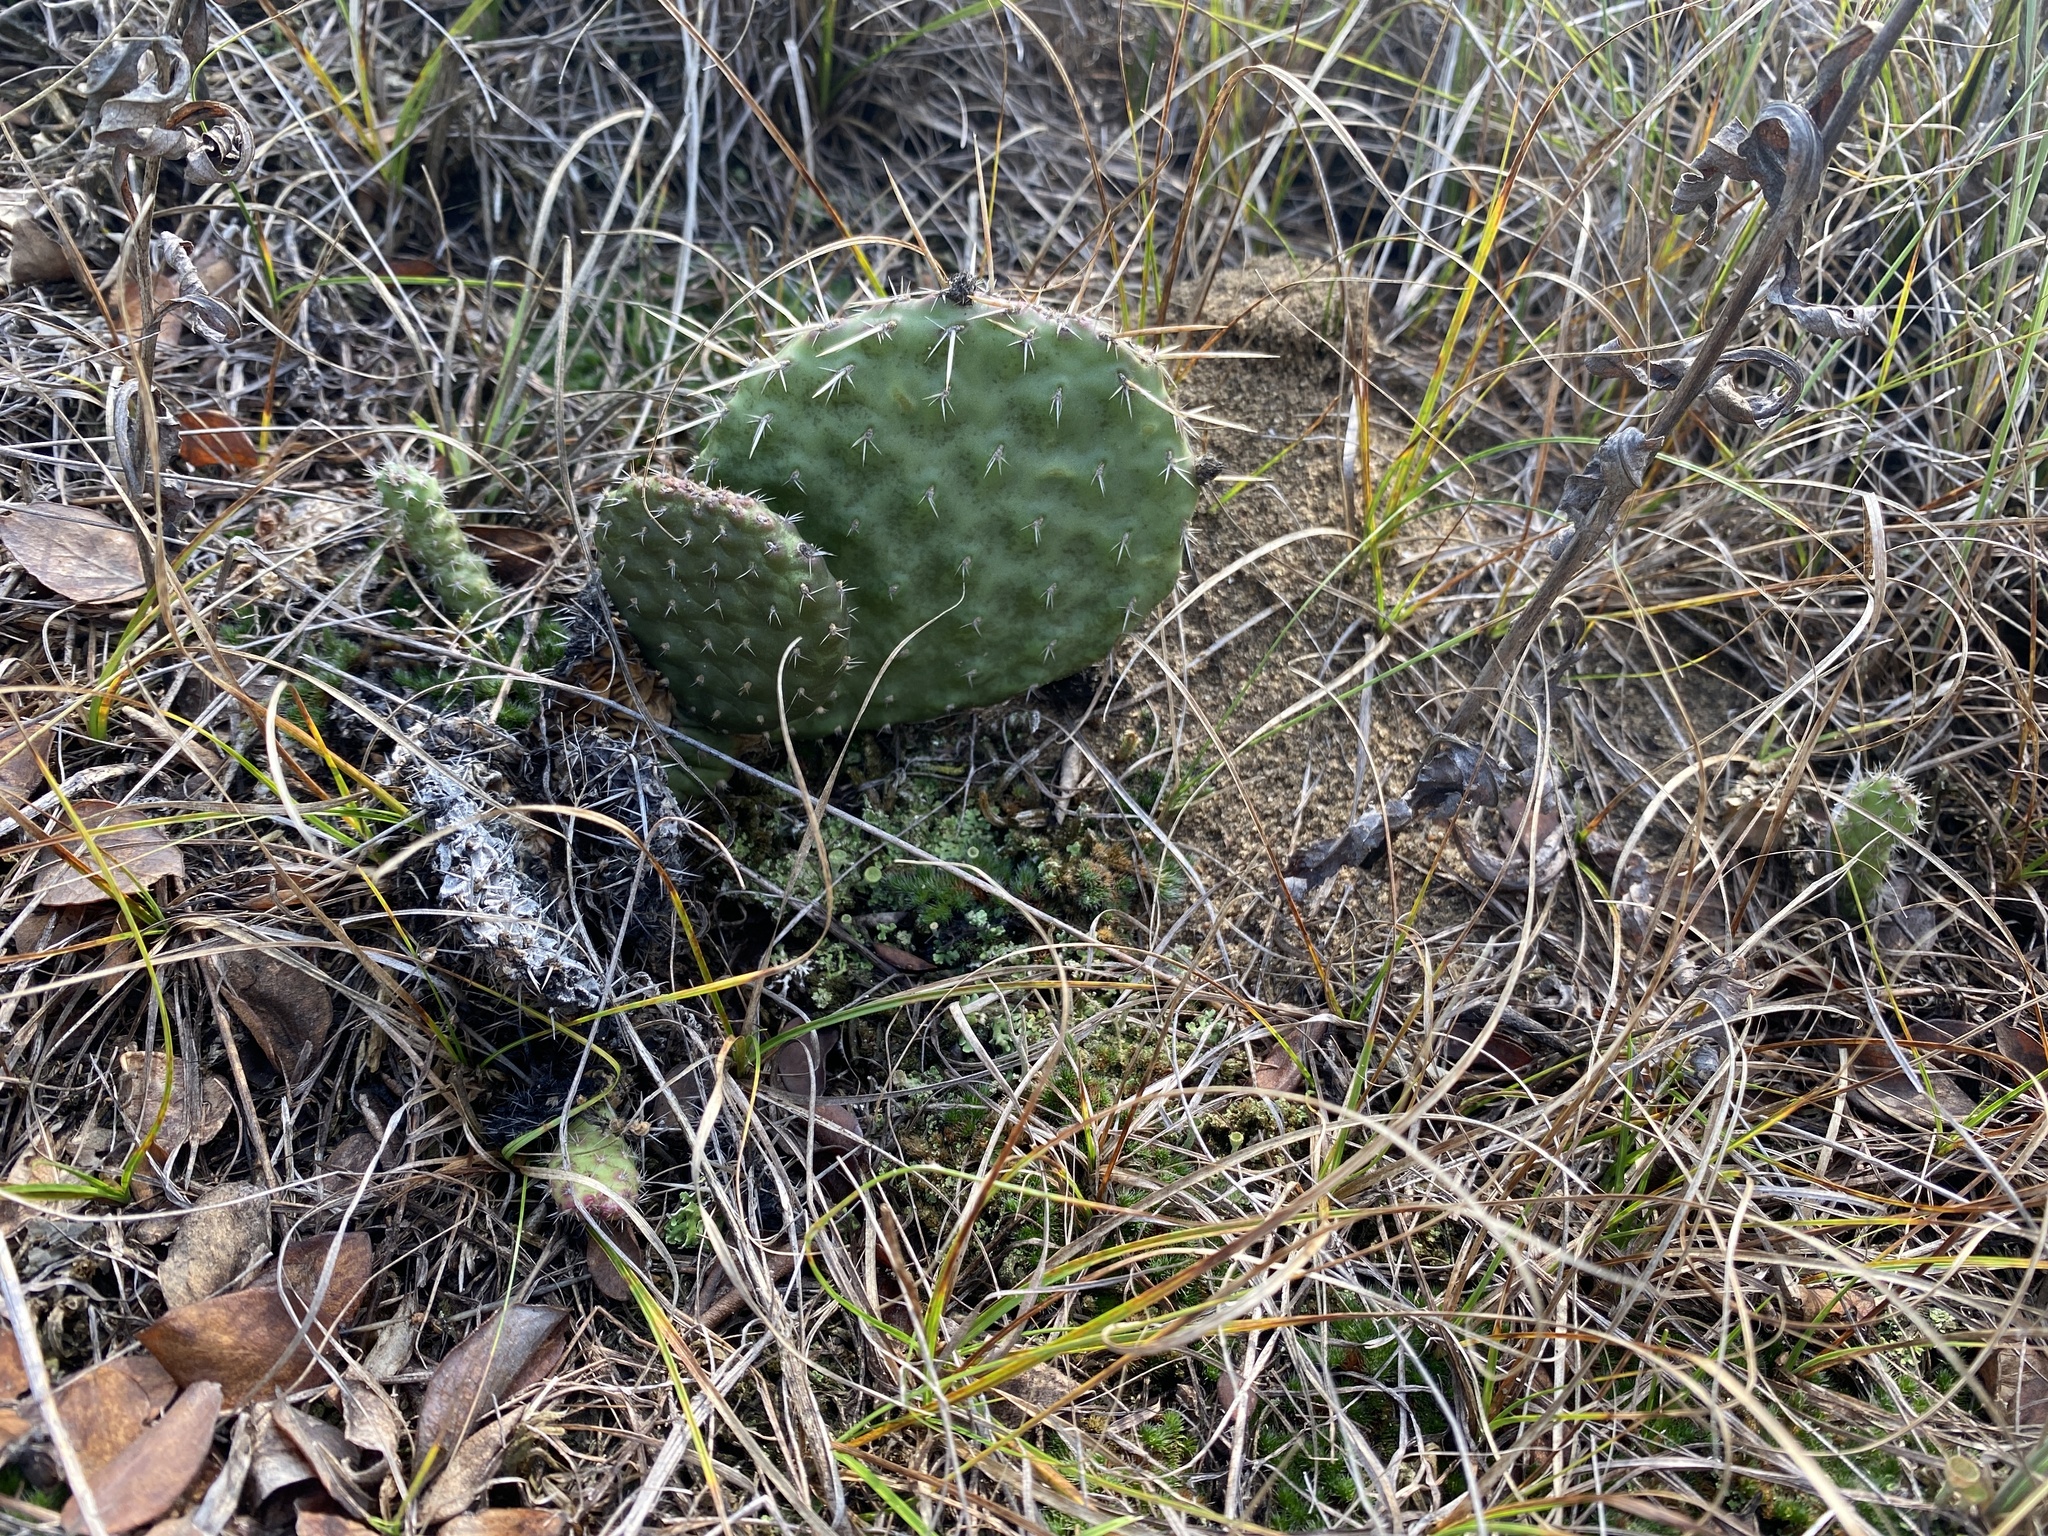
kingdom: Plantae
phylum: Tracheophyta
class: Magnoliopsida
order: Caryophyllales
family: Cactaceae
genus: Opuntia
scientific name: Opuntia polyacantha
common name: Plains prickly-pear
